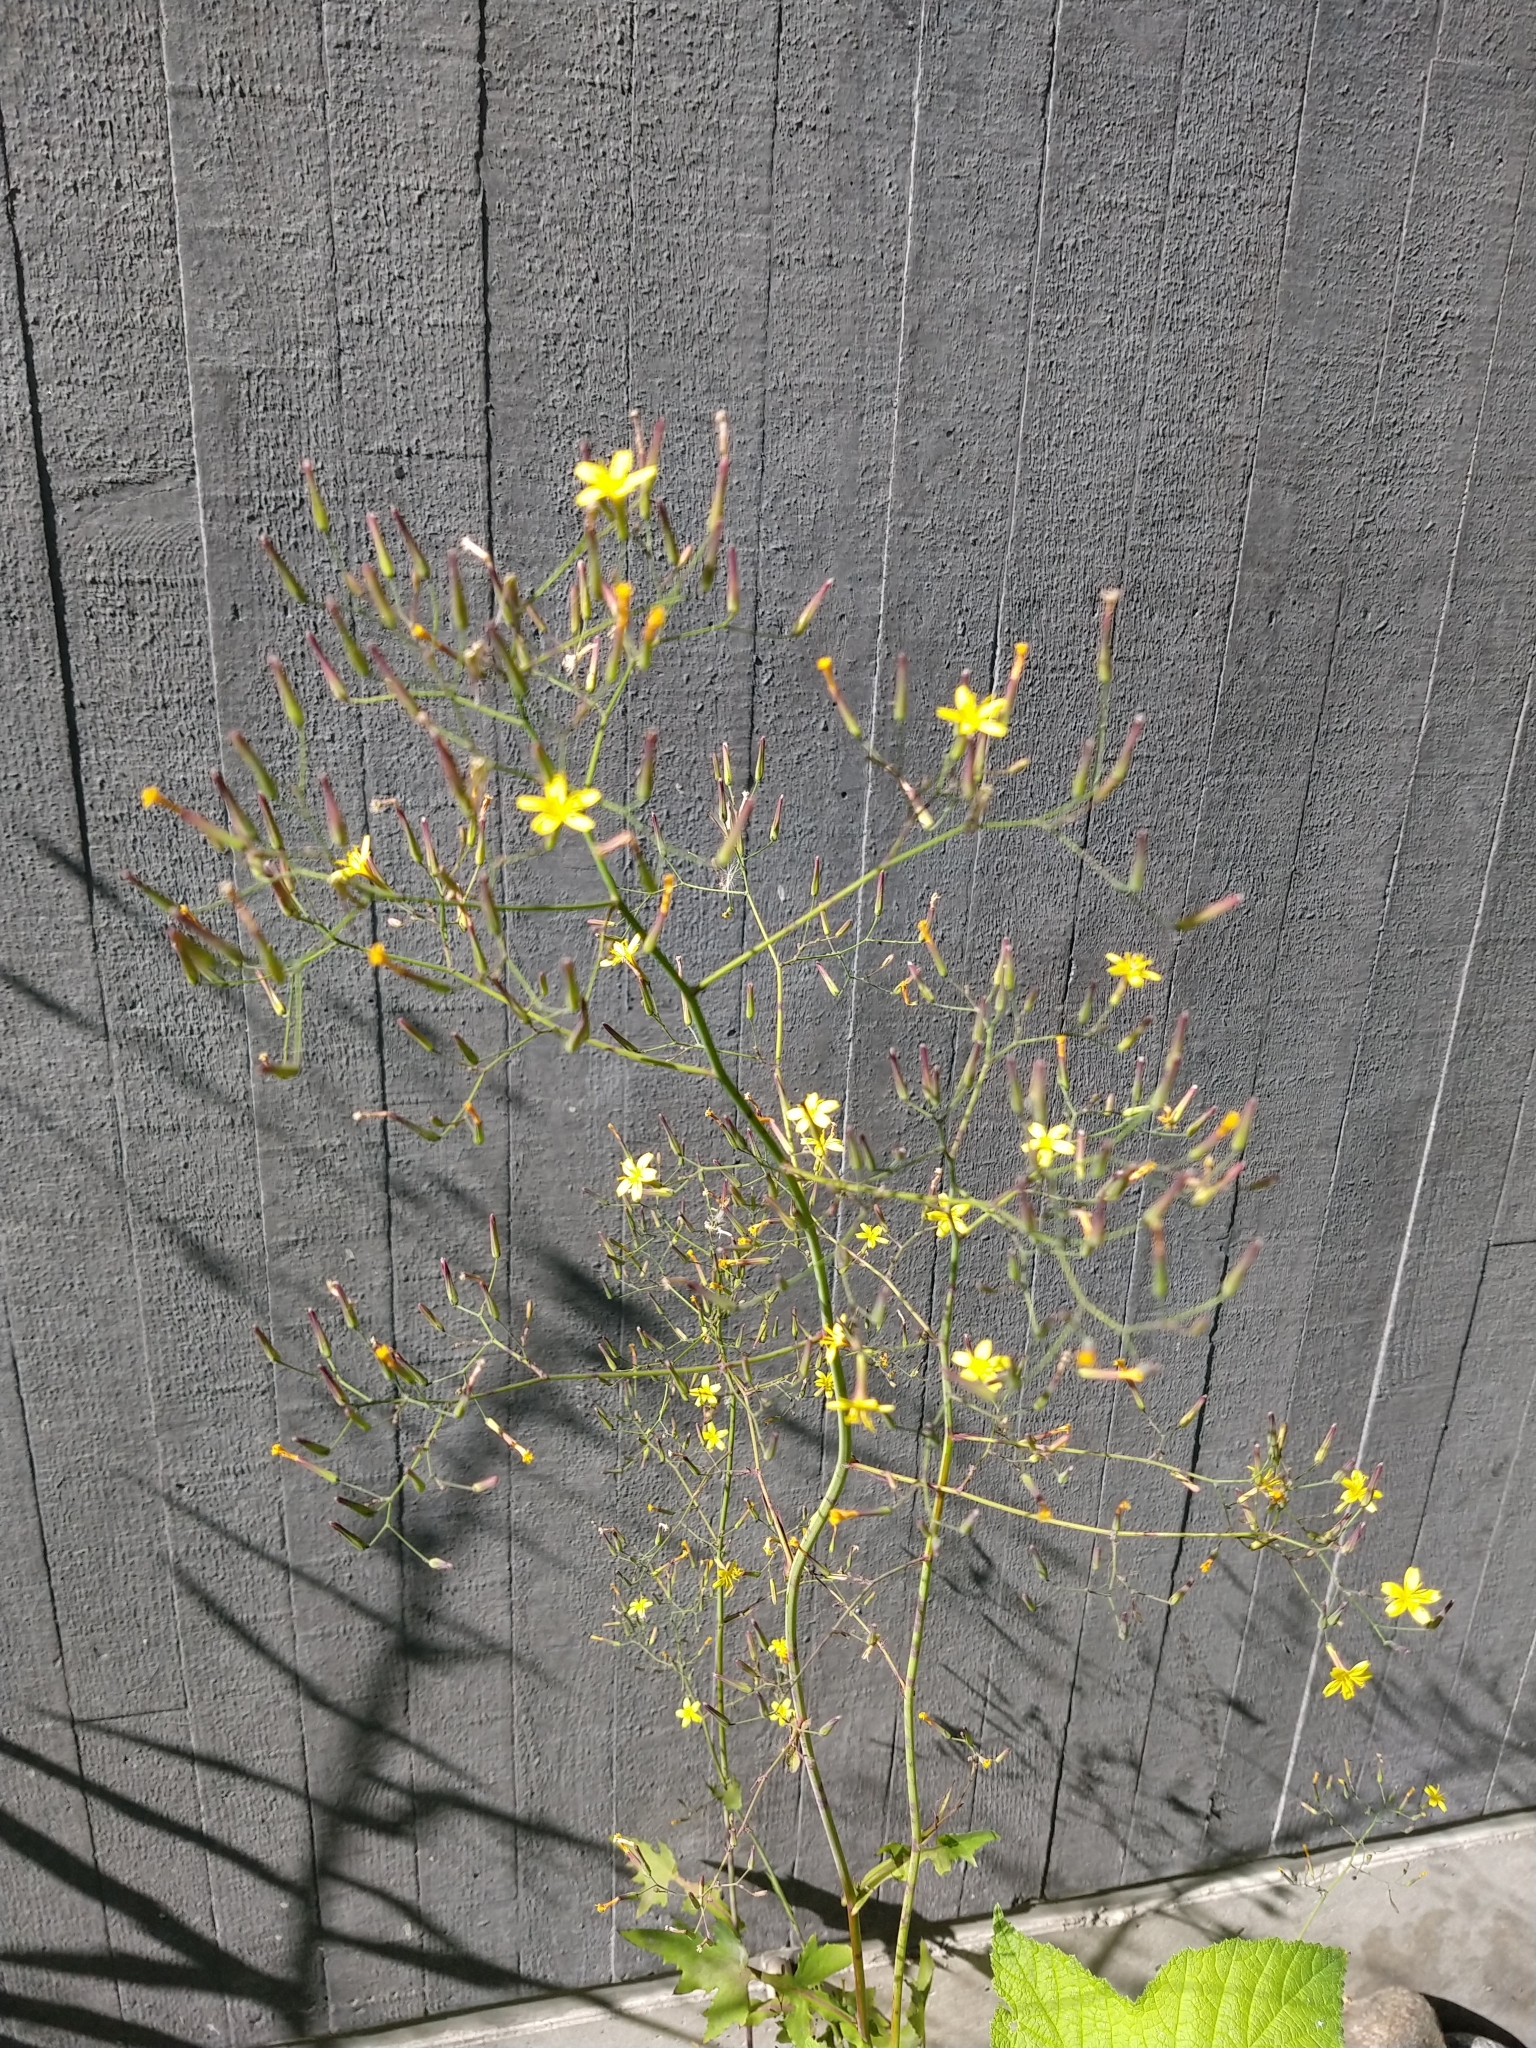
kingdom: Plantae
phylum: Tracheophyta
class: Magnoliopsida
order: Asterales
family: Asteraceae
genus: Mycelis
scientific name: Mycelis muralis
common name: Wall lettuce
